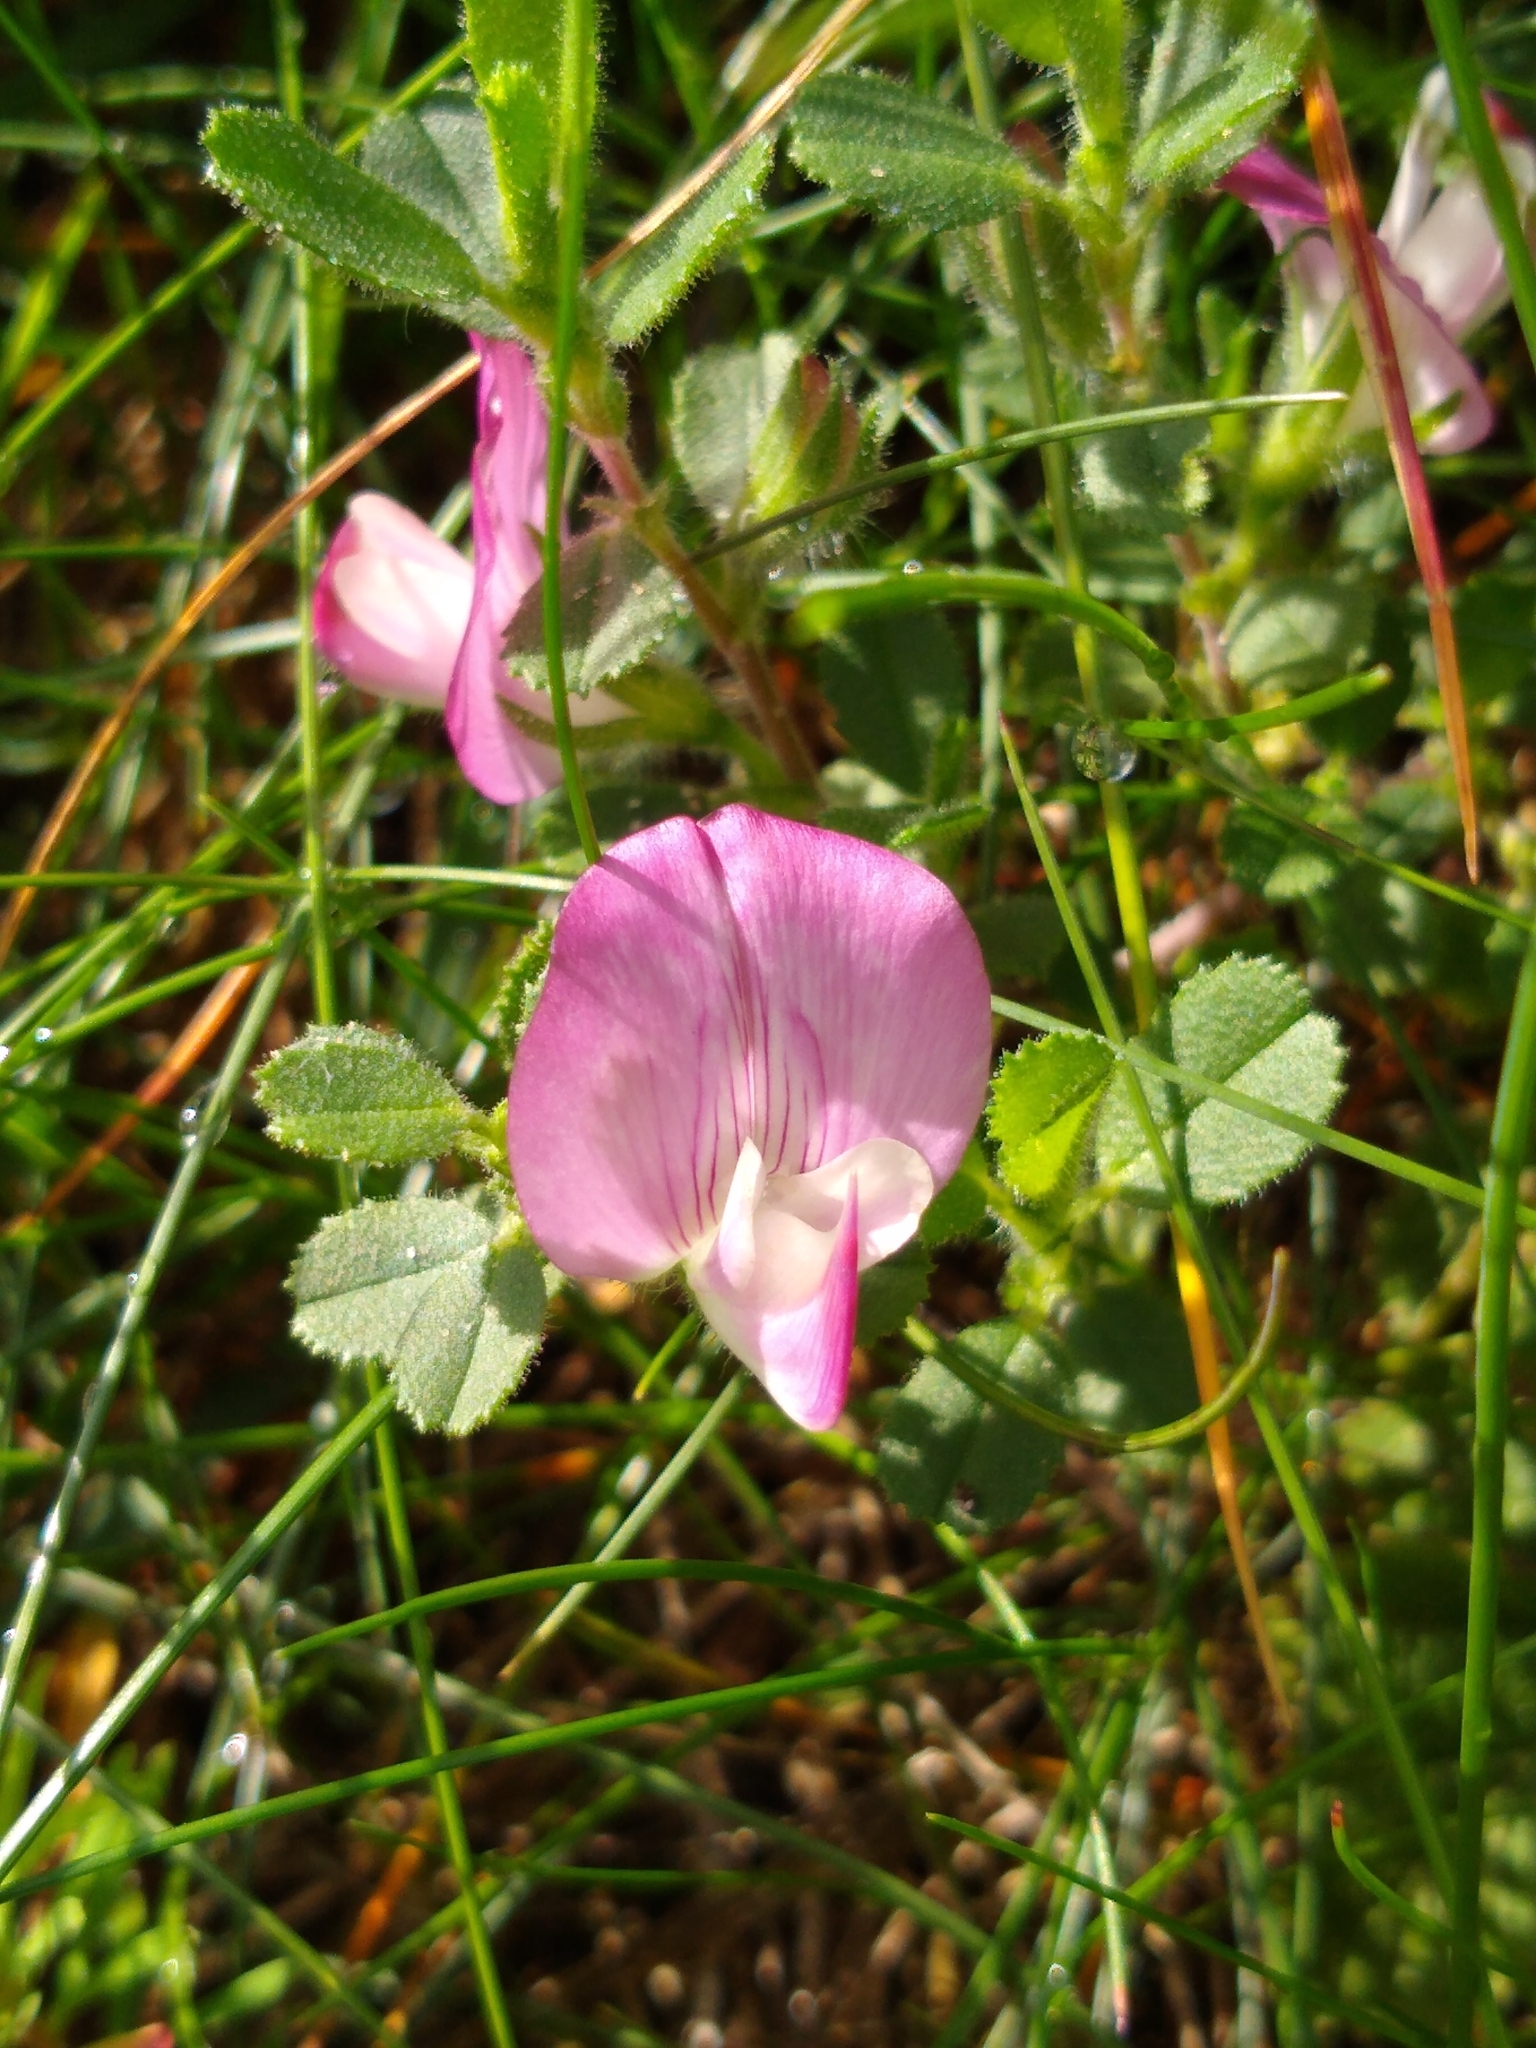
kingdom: Plantae
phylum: Tracheophyta
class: Magnoliopsida
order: Fabales
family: Fabaceae
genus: Ononis
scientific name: Ononis spinosa
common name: Spiny restharrow
